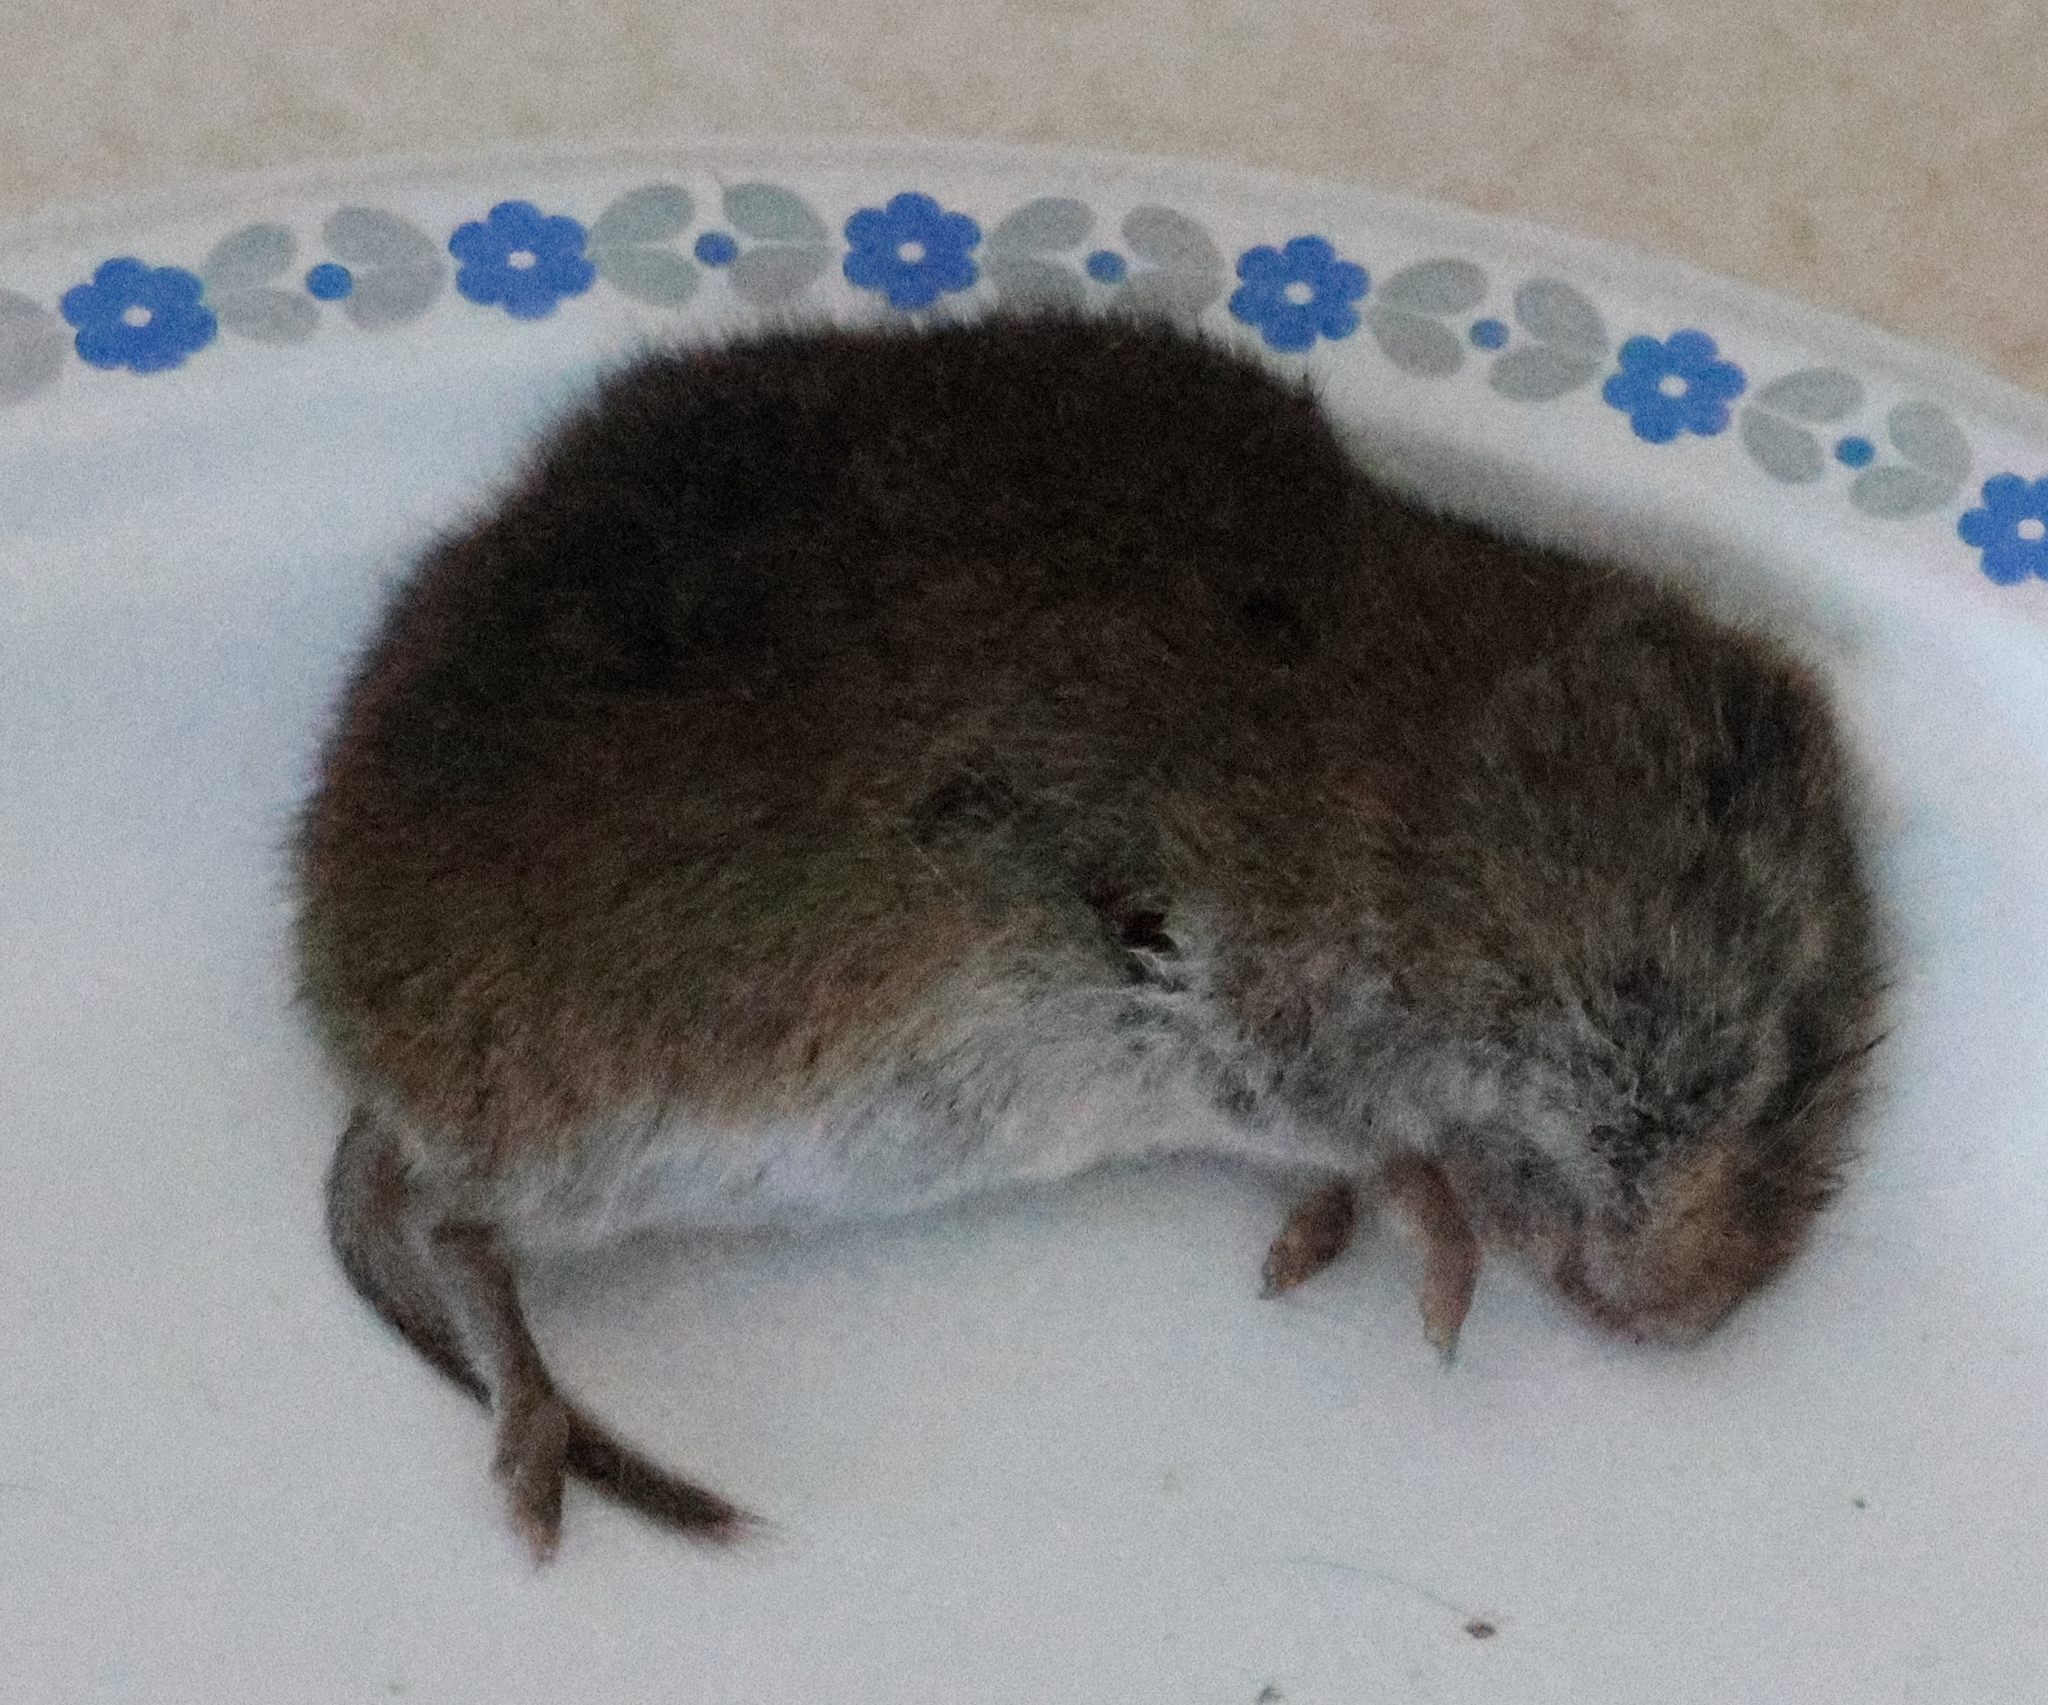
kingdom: Animalia
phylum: Chordata
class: Mammalia
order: Rodentia
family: Cricetidae
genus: Microtus
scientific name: Microtus pennsylvanicus
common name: Meadow vole
